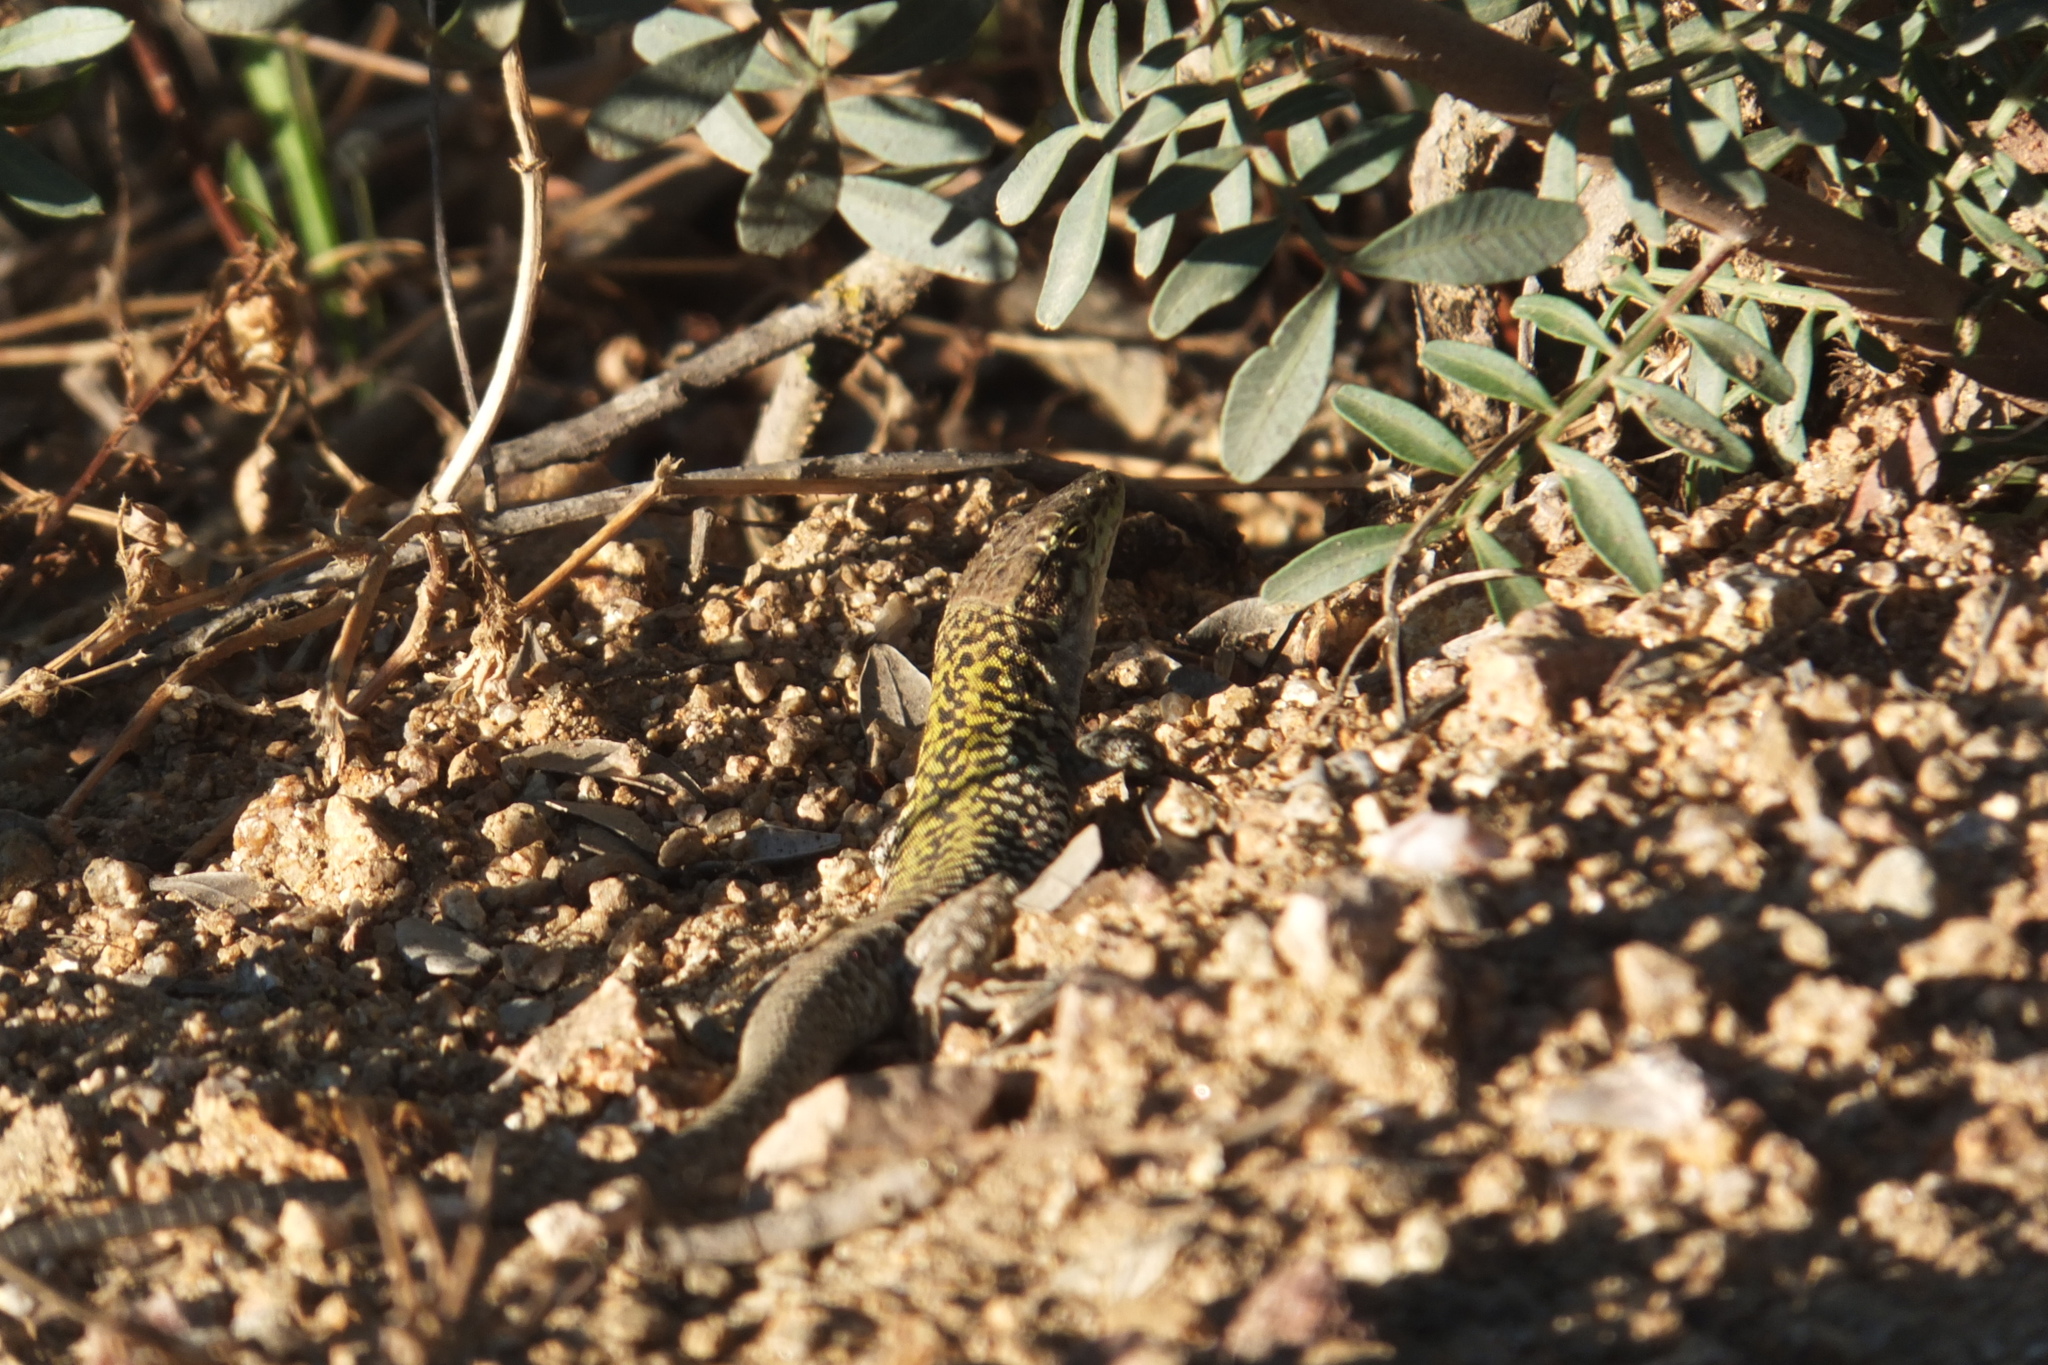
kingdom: Animalia
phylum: Chordata
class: Squamata
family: Lacertidae
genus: Podarcis
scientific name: Podarcis siculus
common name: Italian wall lizard
